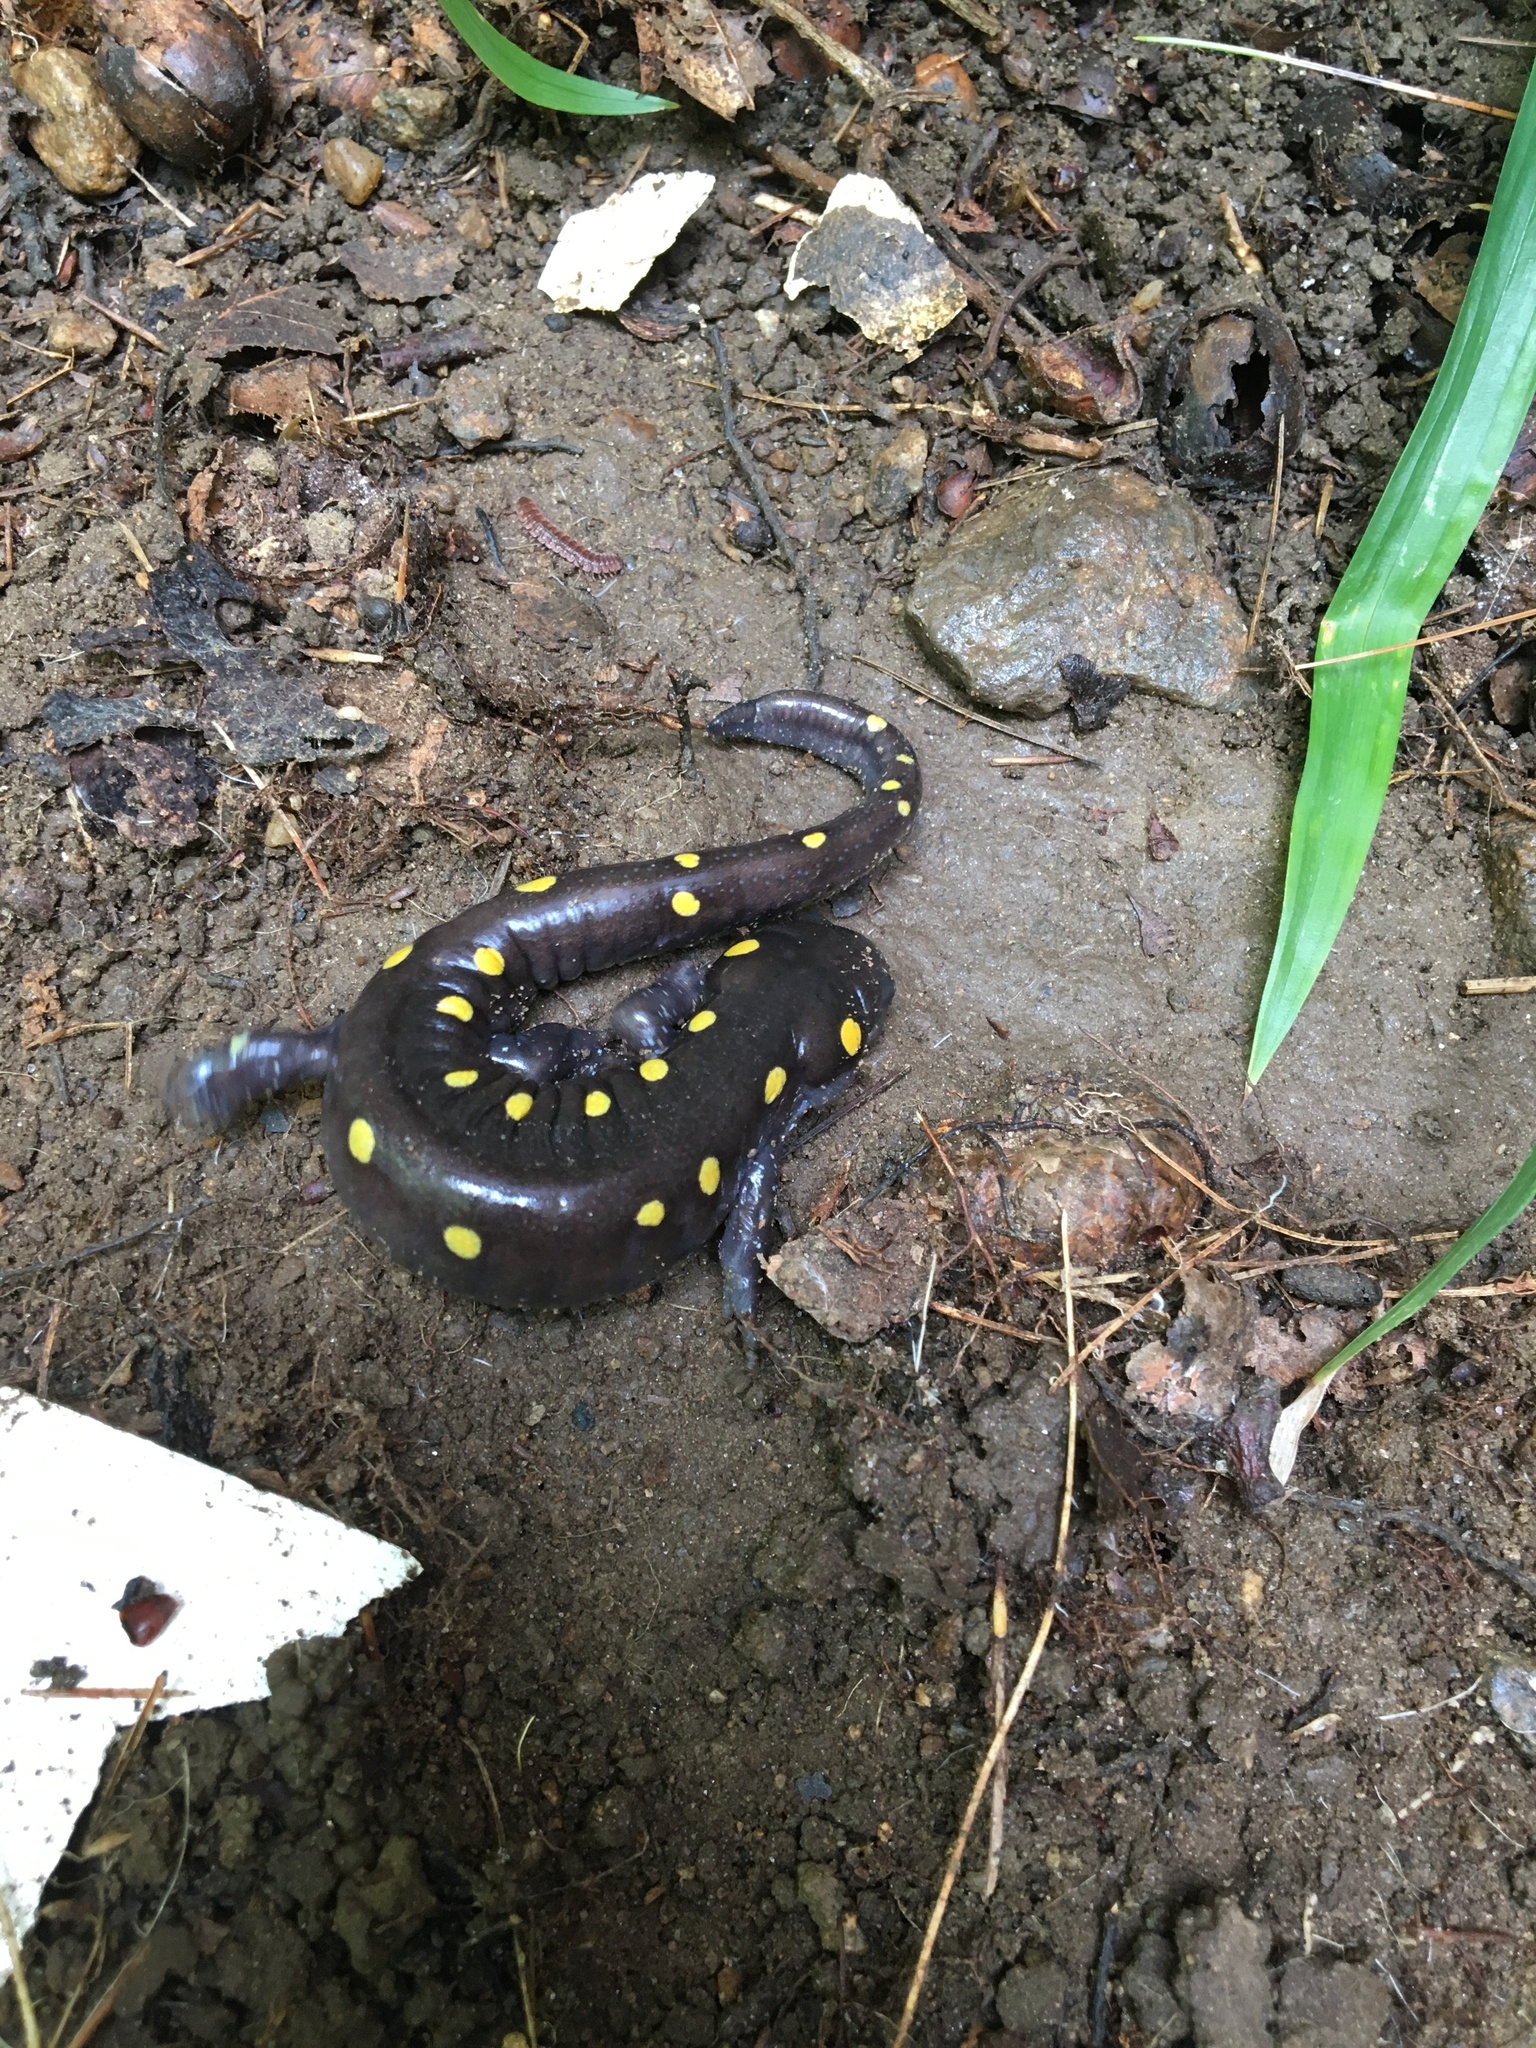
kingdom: Animalia
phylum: Chordata
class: Amphibia
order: Caudata
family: Ambystomatidae
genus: Ambystoma
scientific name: Ambystoma maculatum
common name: Spotted salamander
